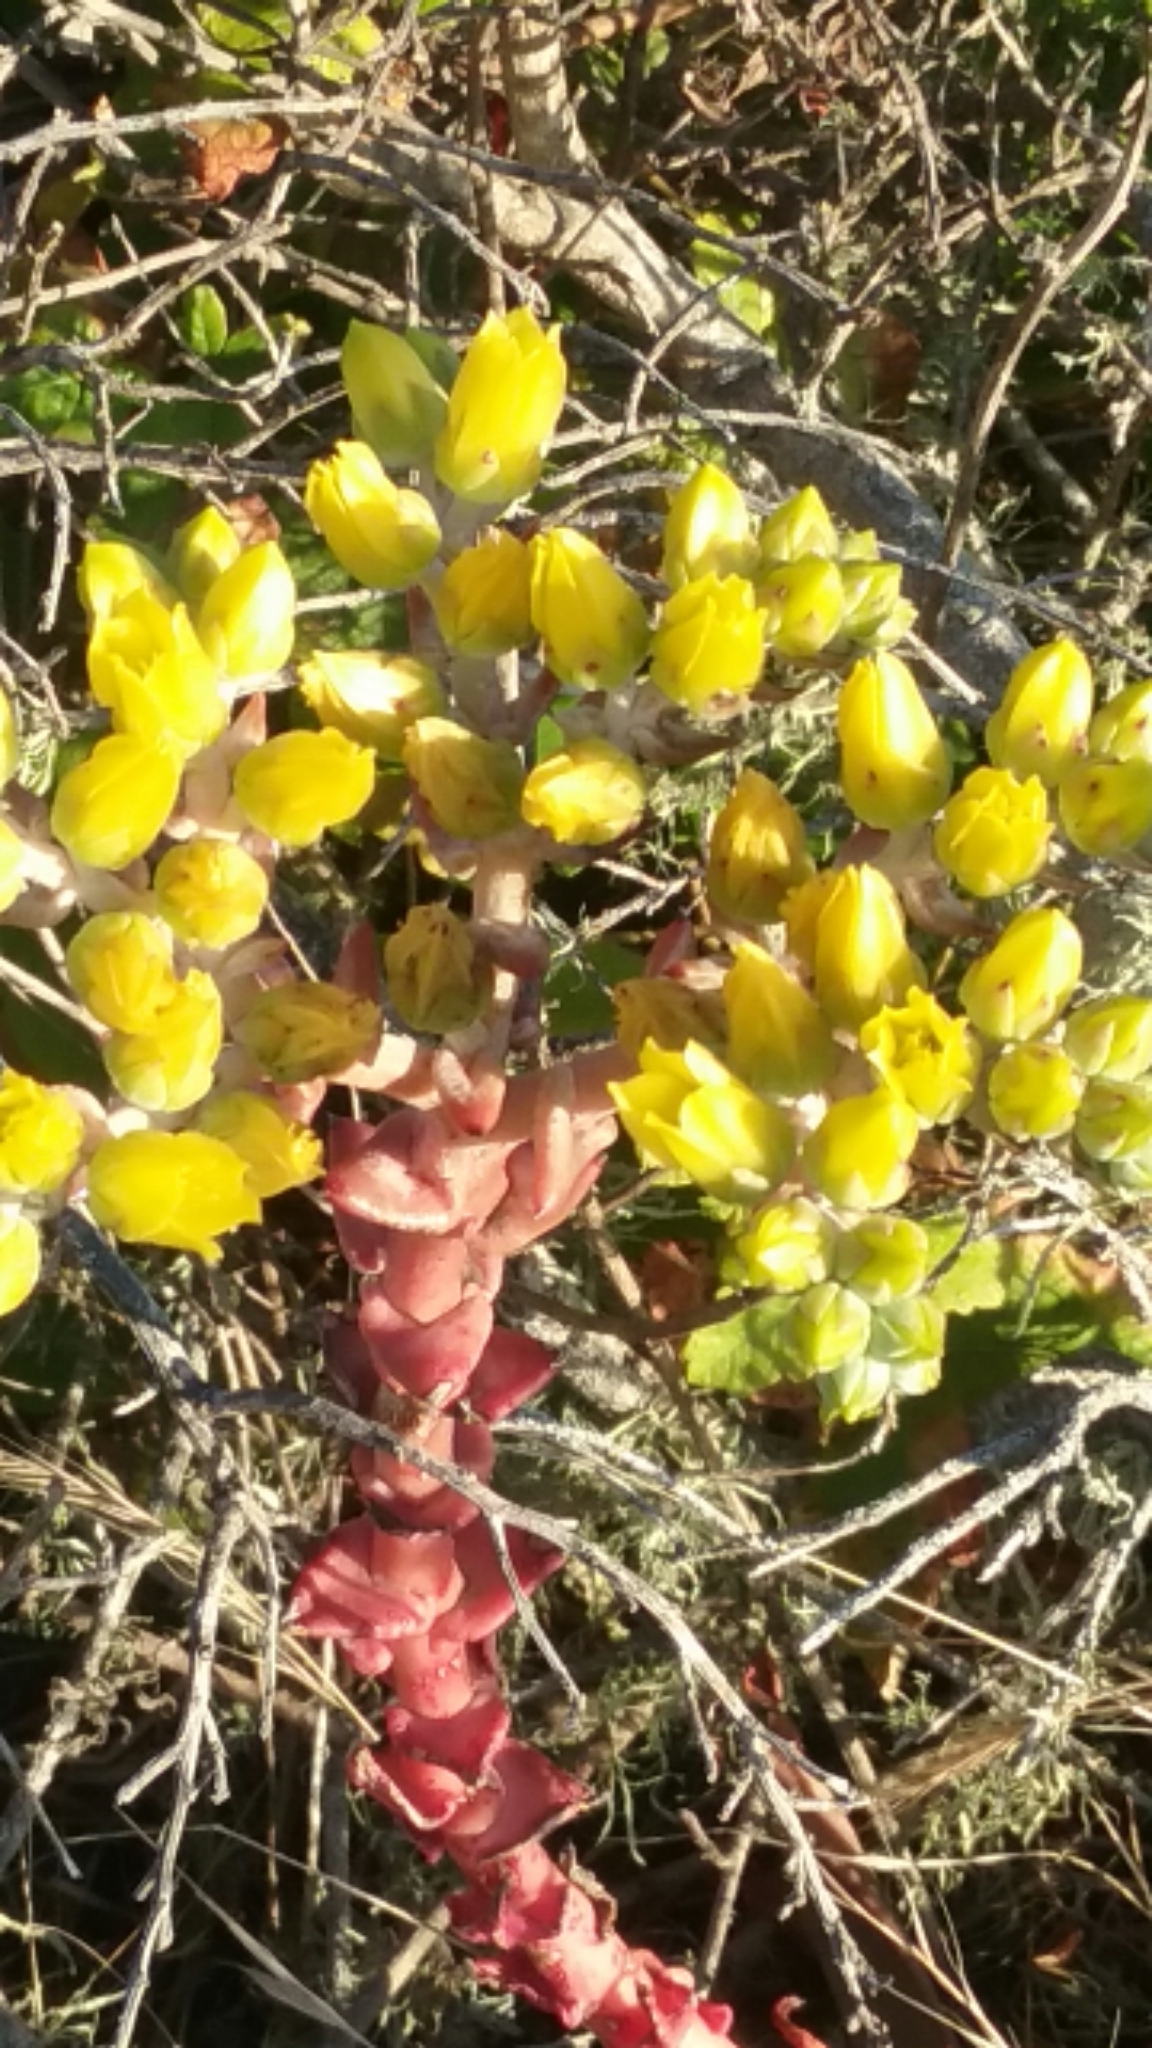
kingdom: Plantae
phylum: Tracheophyta
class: Magnoliopsida
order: Saxifragales
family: Crassulaceae
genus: Dudleya
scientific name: Dudleya caespitosa
